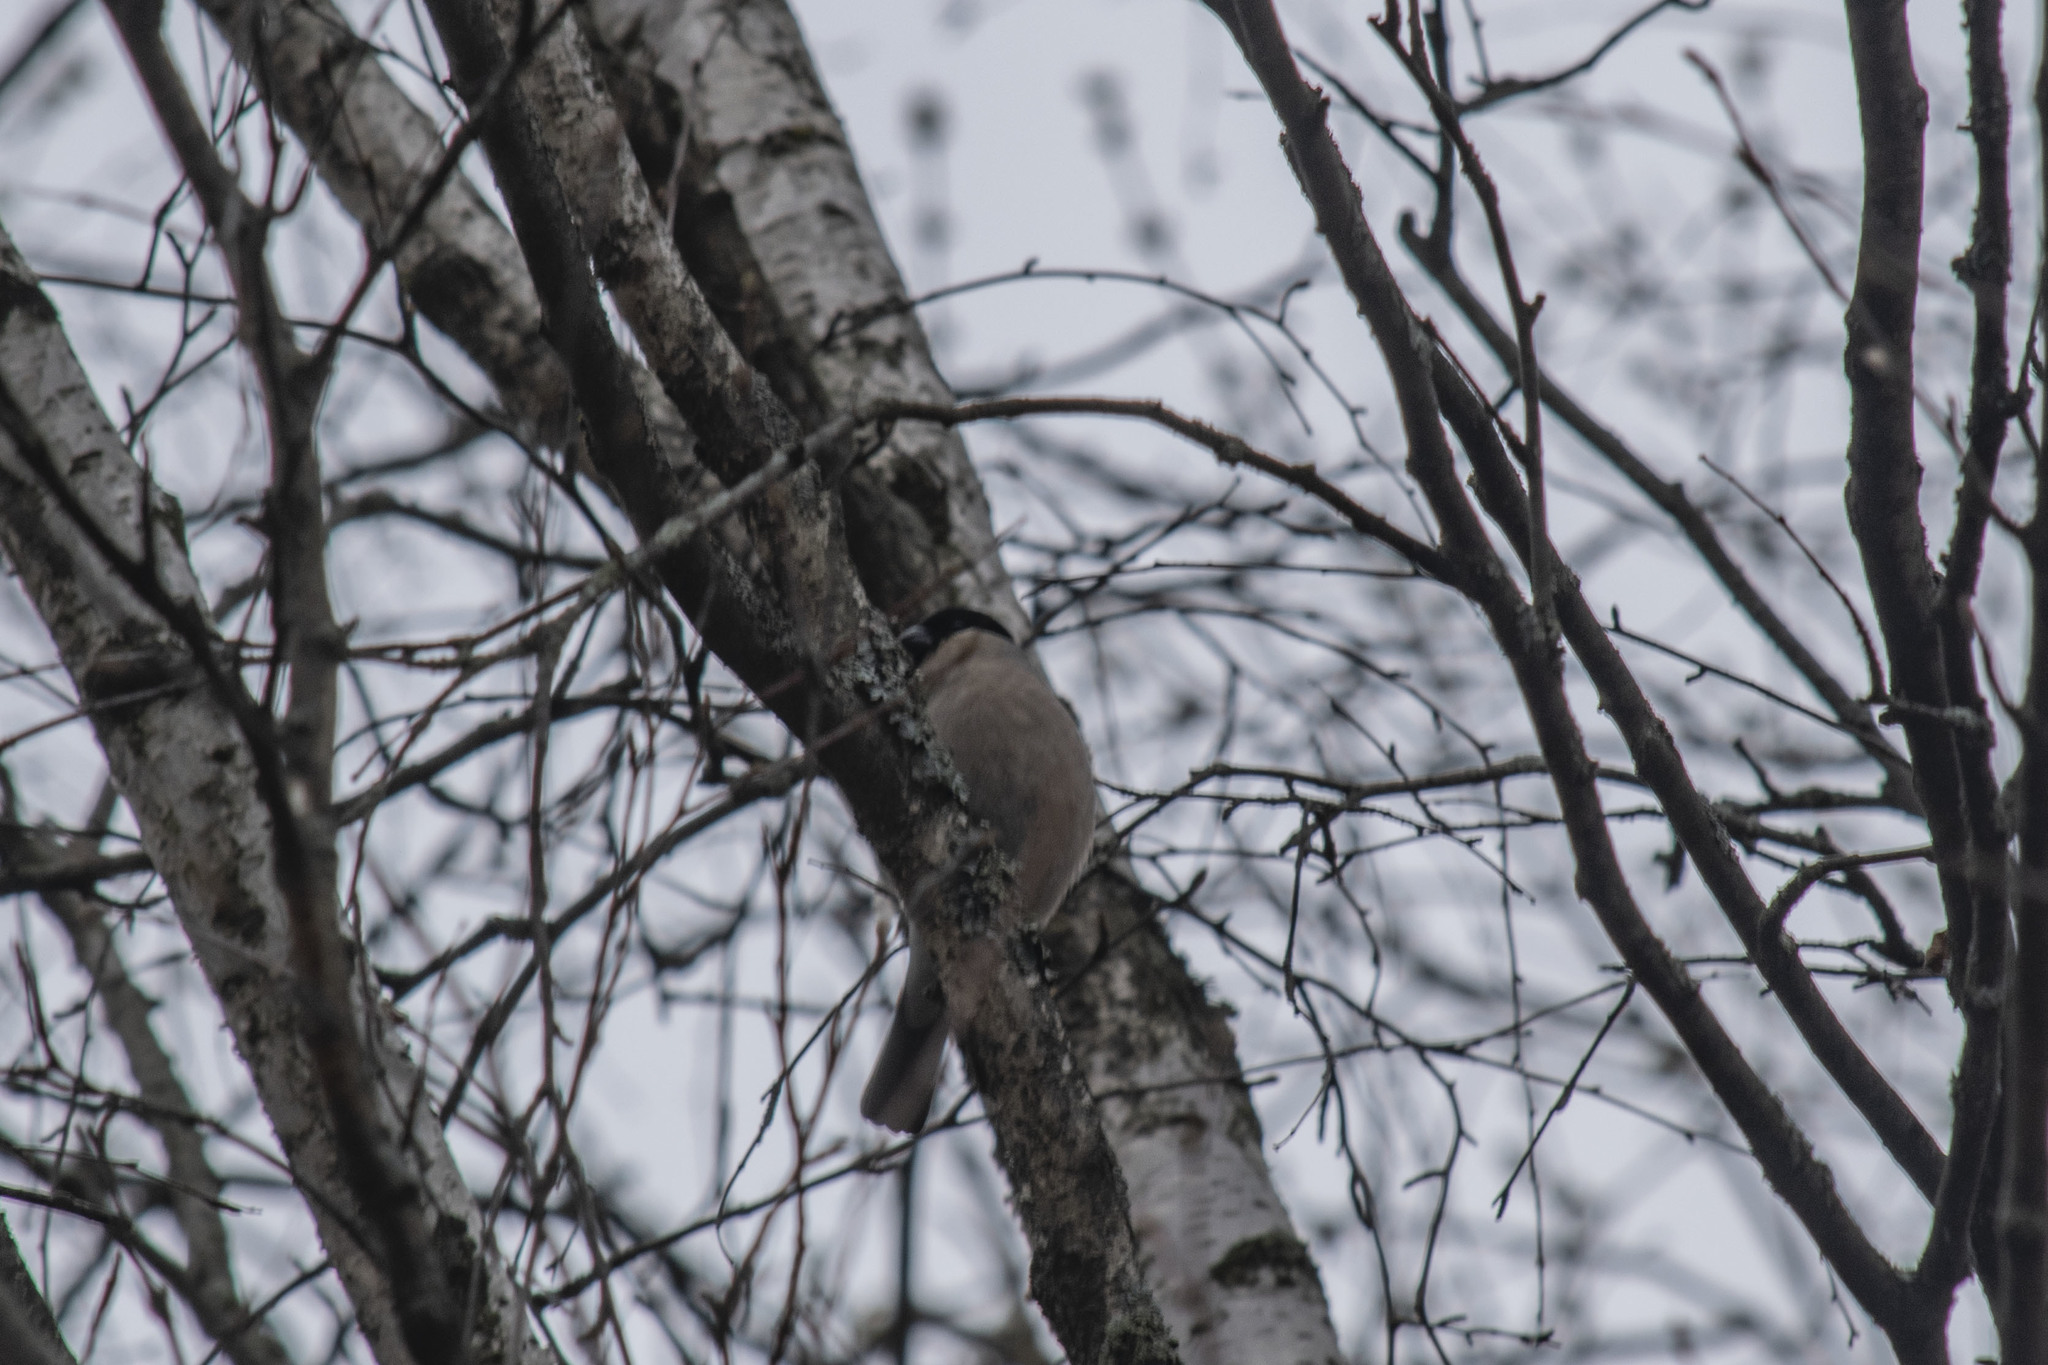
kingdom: Animalia
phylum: Chordata
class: Aves
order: Passeriformes
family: Fringillidae
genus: Pyrrhula
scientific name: Pyrrhula pyrrhula
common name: Eurasian bullfinch
